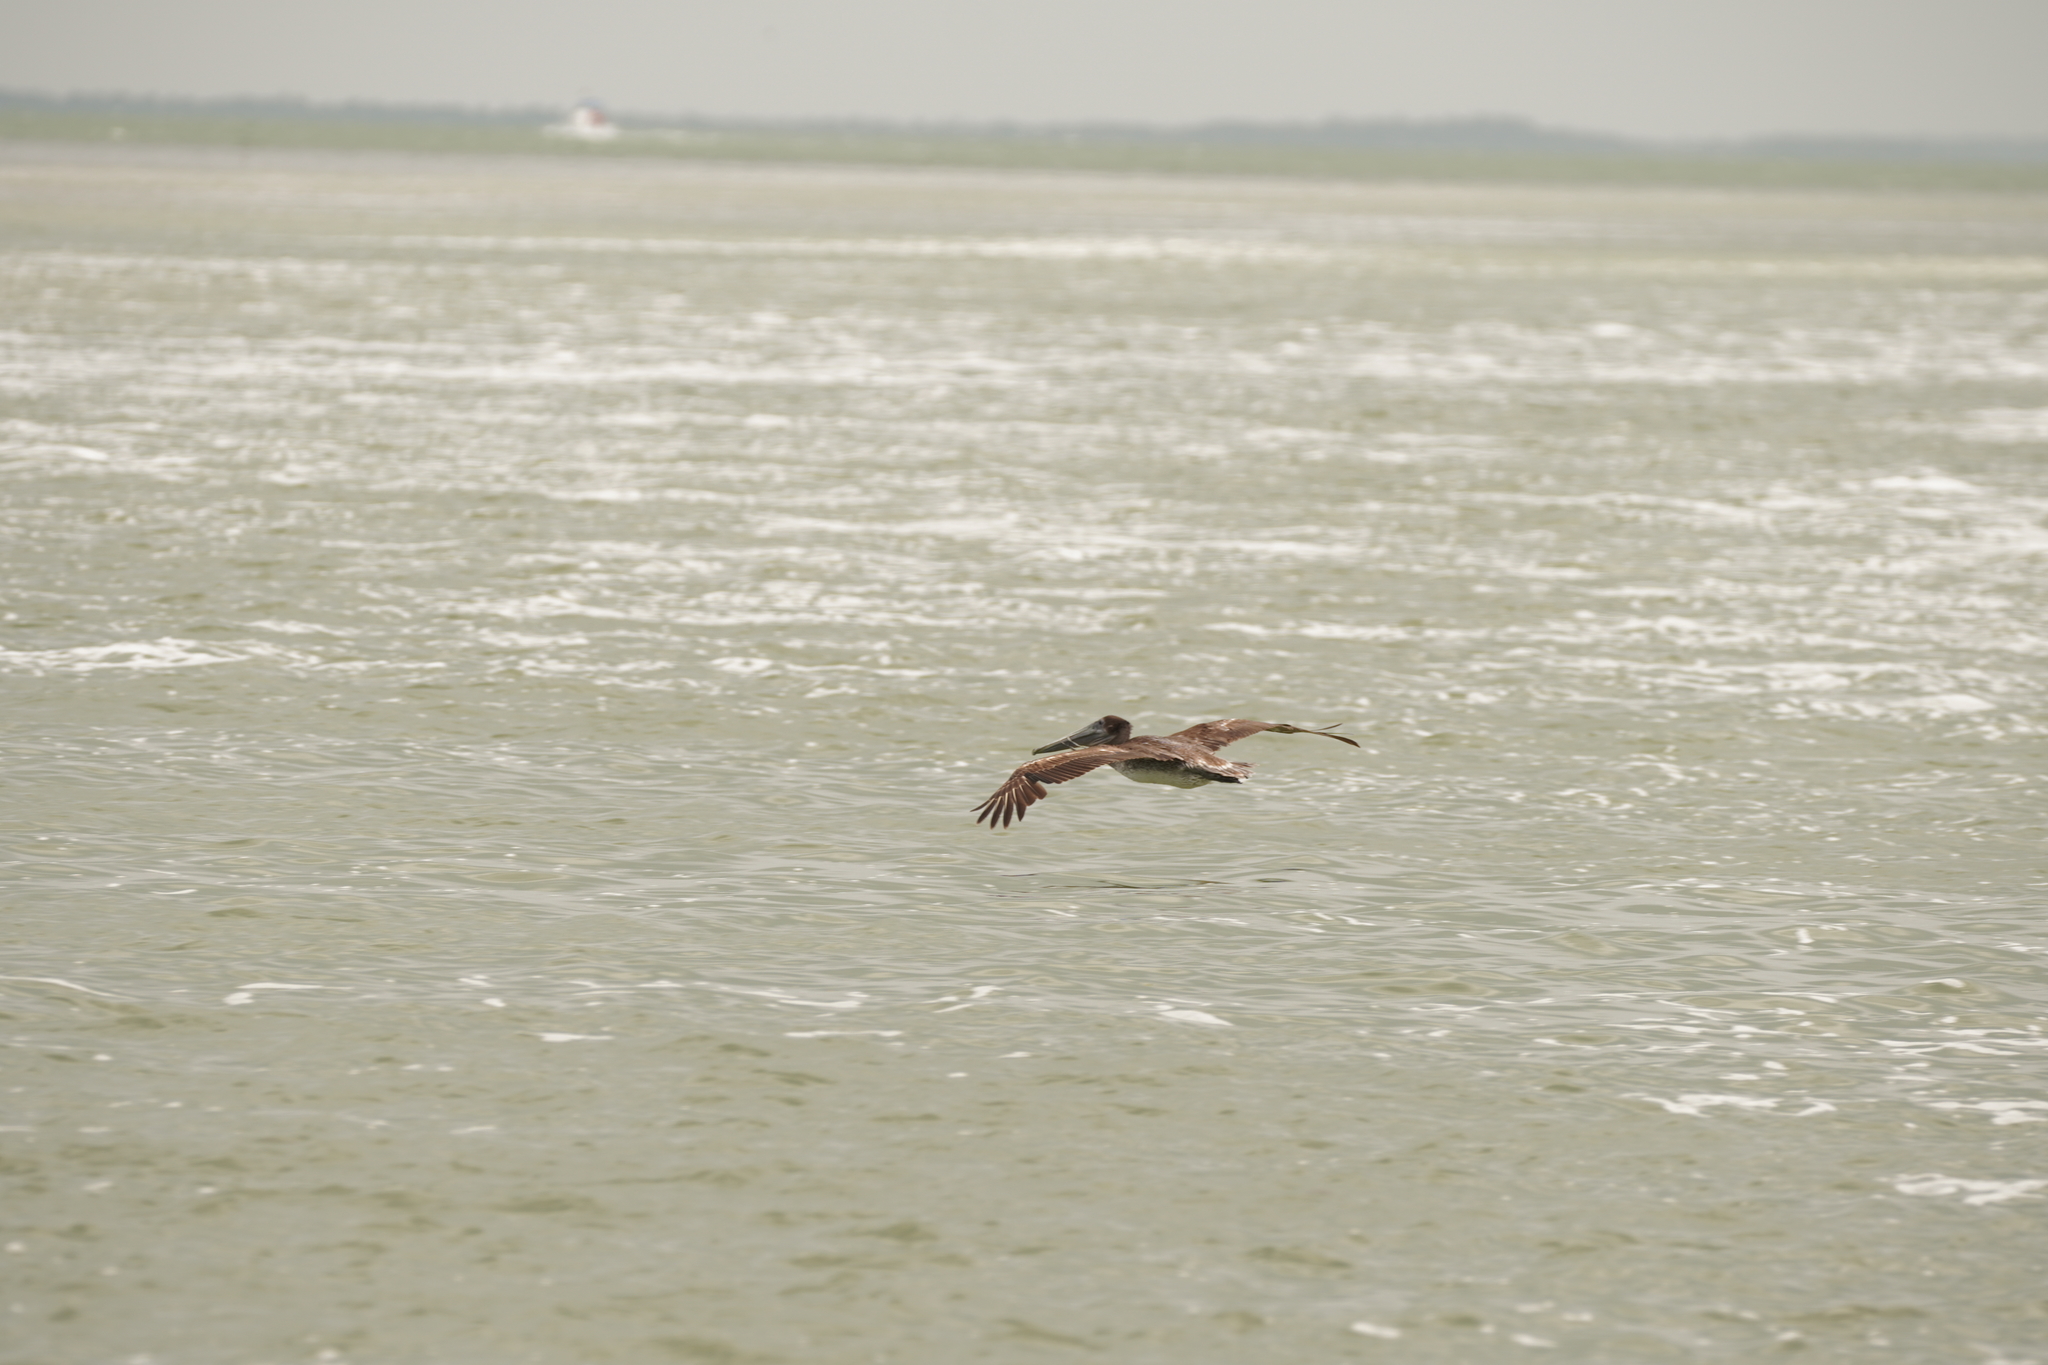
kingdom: Animalia
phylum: Chordata
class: Aves
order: Pelecaniformes
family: Pelecanidae
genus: Pelecanus
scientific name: Pelecanus occidentalis
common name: Brown pelican
